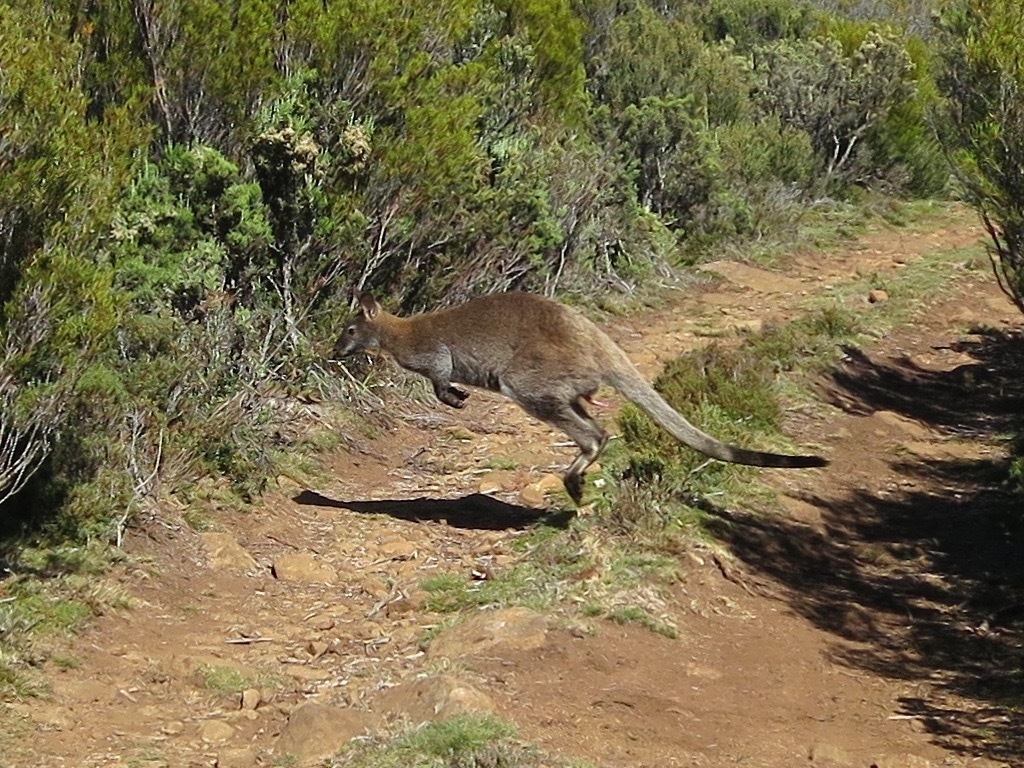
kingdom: Animalia
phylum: Chordata
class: Mammalia
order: Diprotodontia
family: Macropodidae
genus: Notamacropus
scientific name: Notamacropus rufogriseus
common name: Red-necked wallaby
